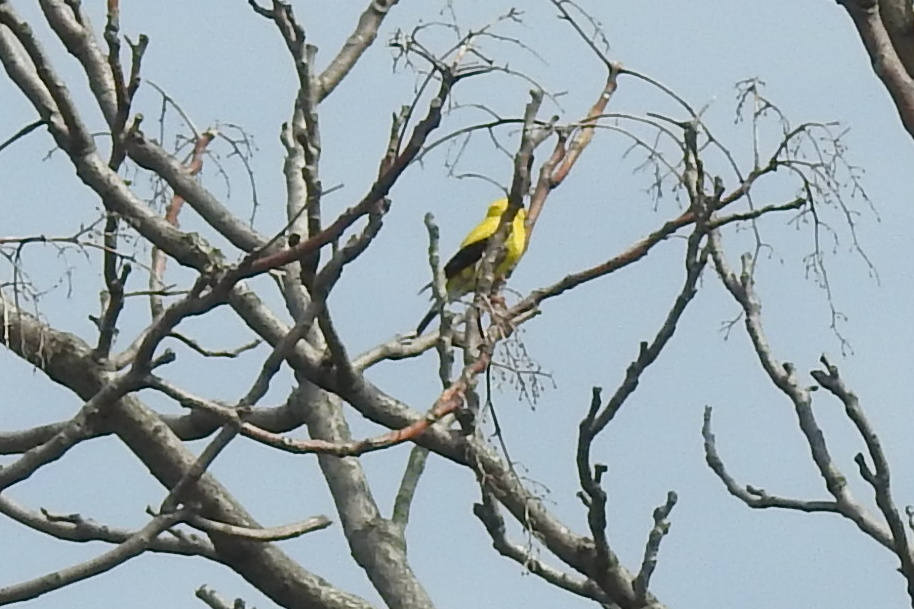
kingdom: Animalia
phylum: Chordata
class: Aves
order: Passeriformes
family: Fringillidae
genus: Spinus
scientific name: Spinus tristis
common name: American goldfinch
